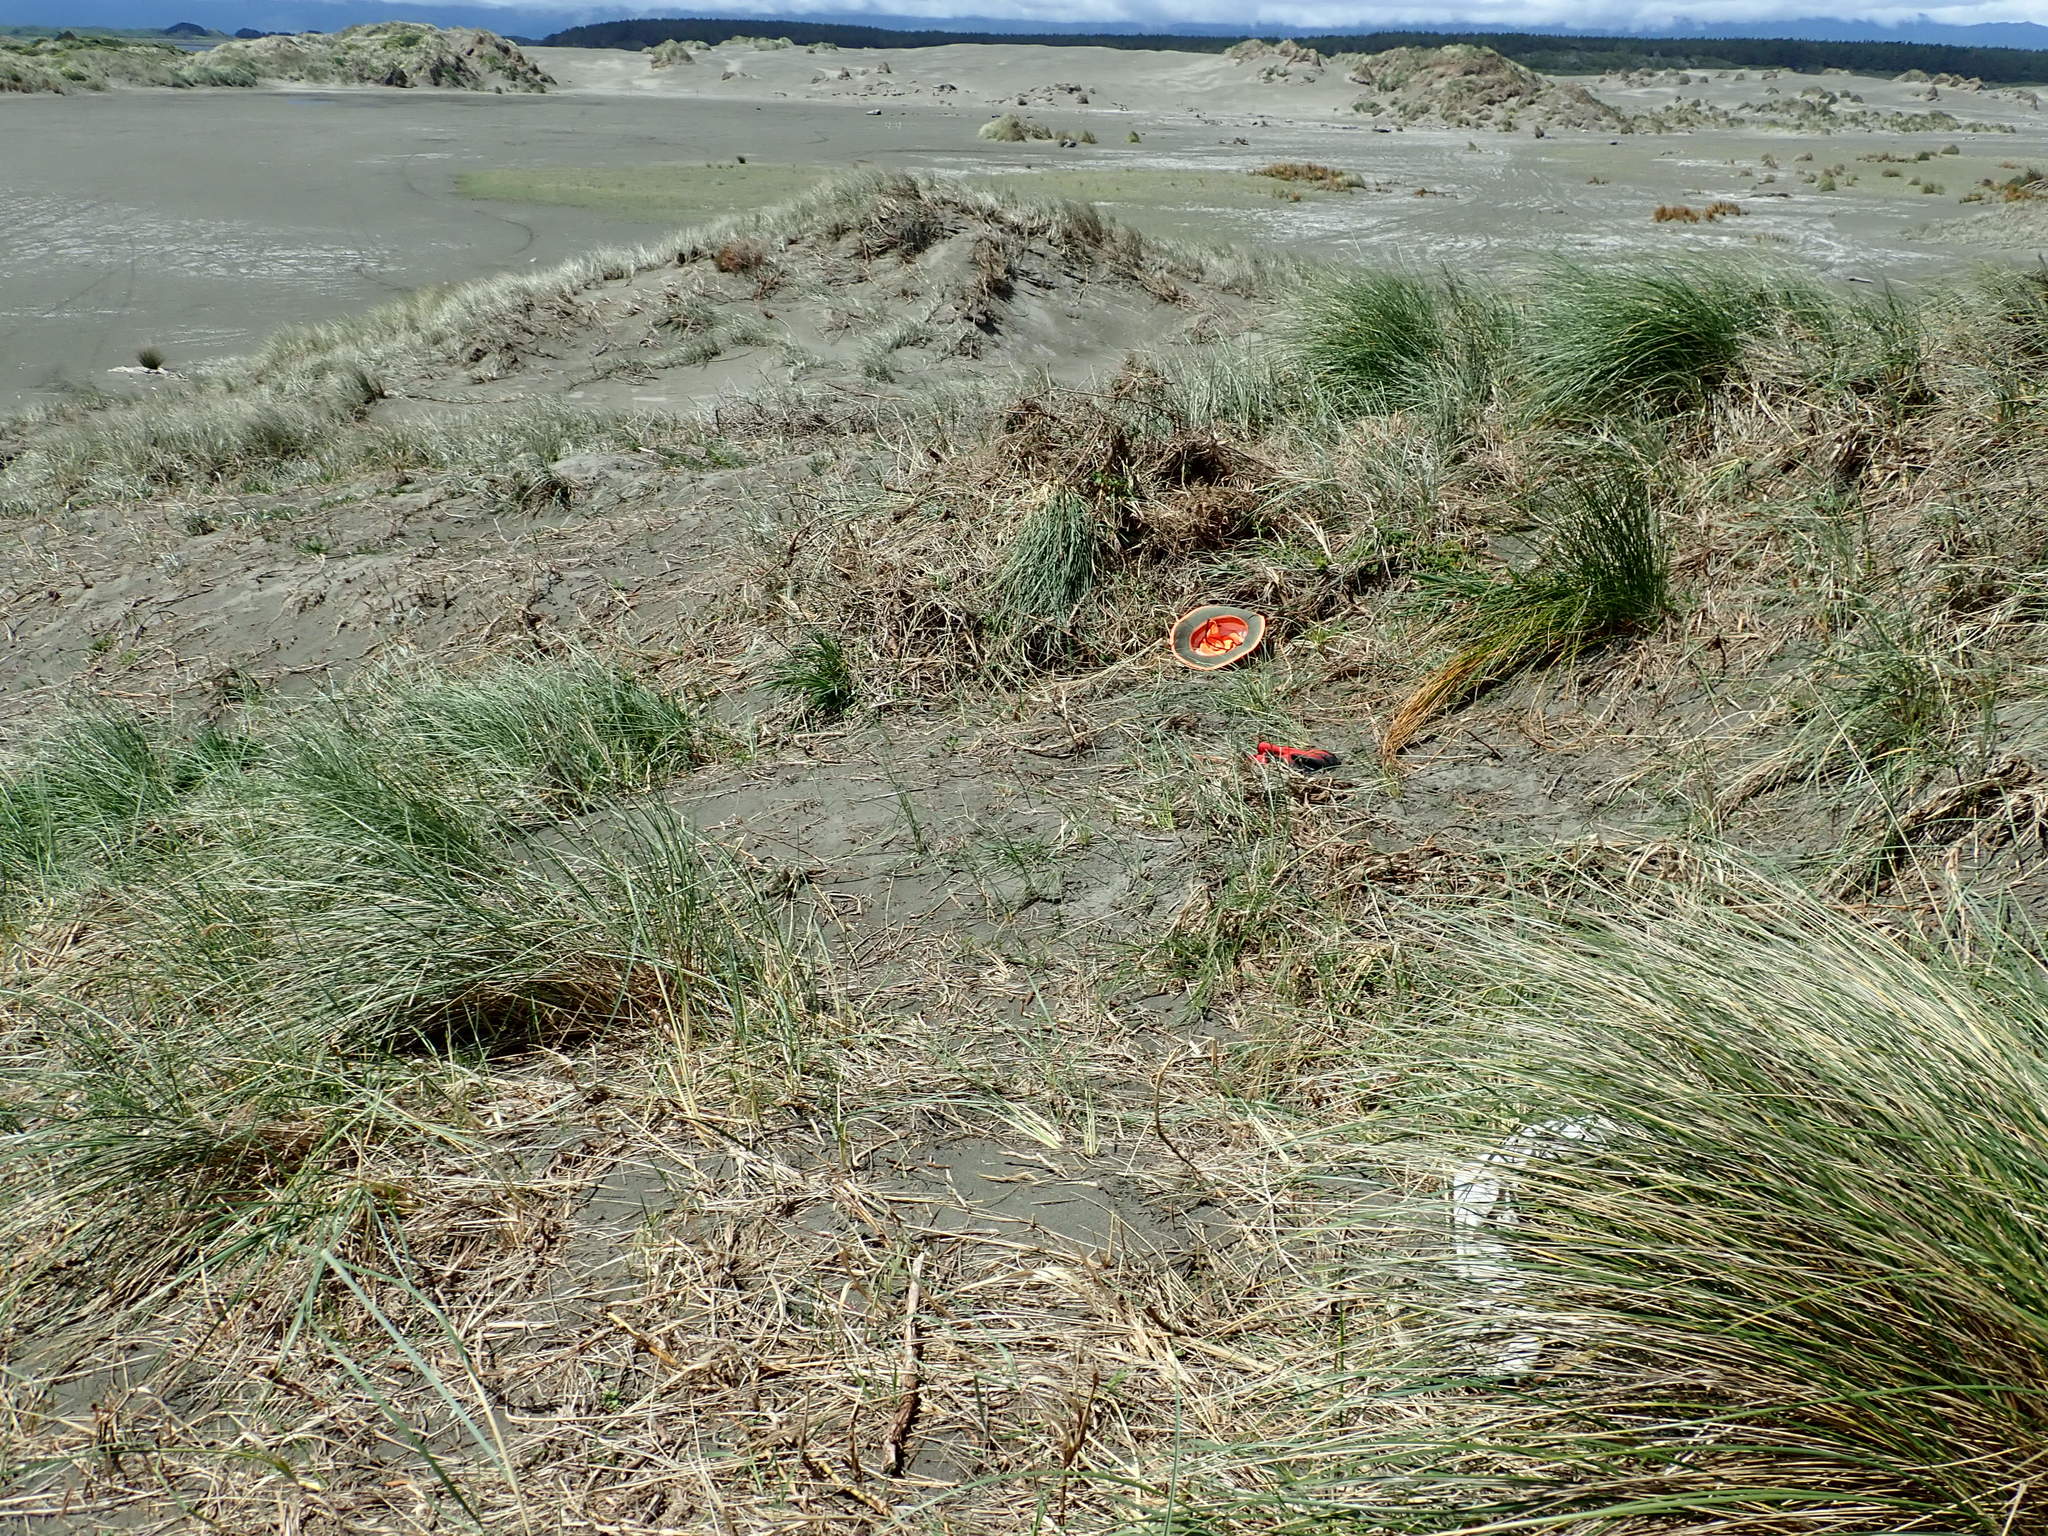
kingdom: Plantae
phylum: Tracheophyta
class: Magnoliopsida
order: Caryophyllales
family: Aizoaceae
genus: Tetragonia
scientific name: Tetragonia implexicoma
